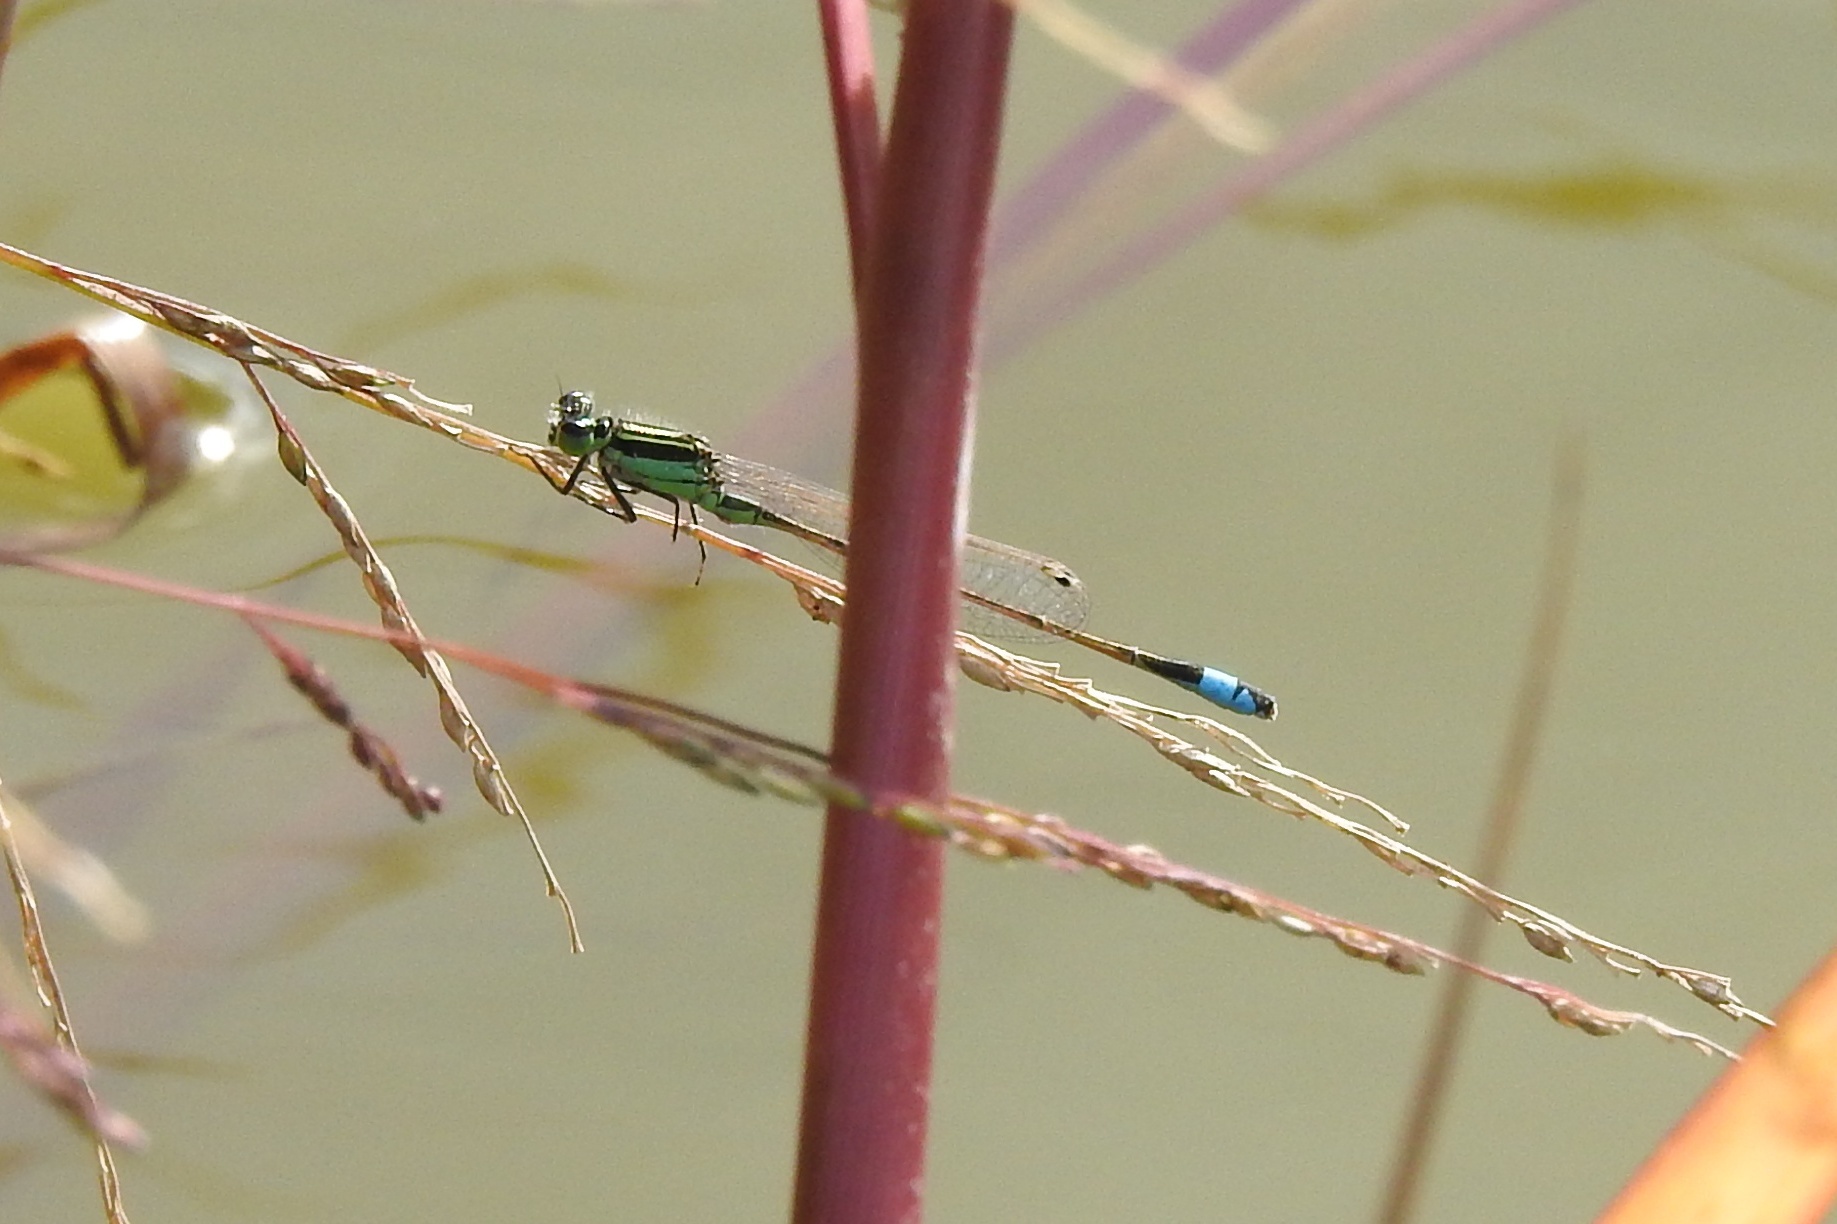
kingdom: Animalia
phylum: Arthropoda
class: Insecta
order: Odonata
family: Coenagrionidae
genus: Ischnura
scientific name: Ischnura ramburii
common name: Rambur's forktail
